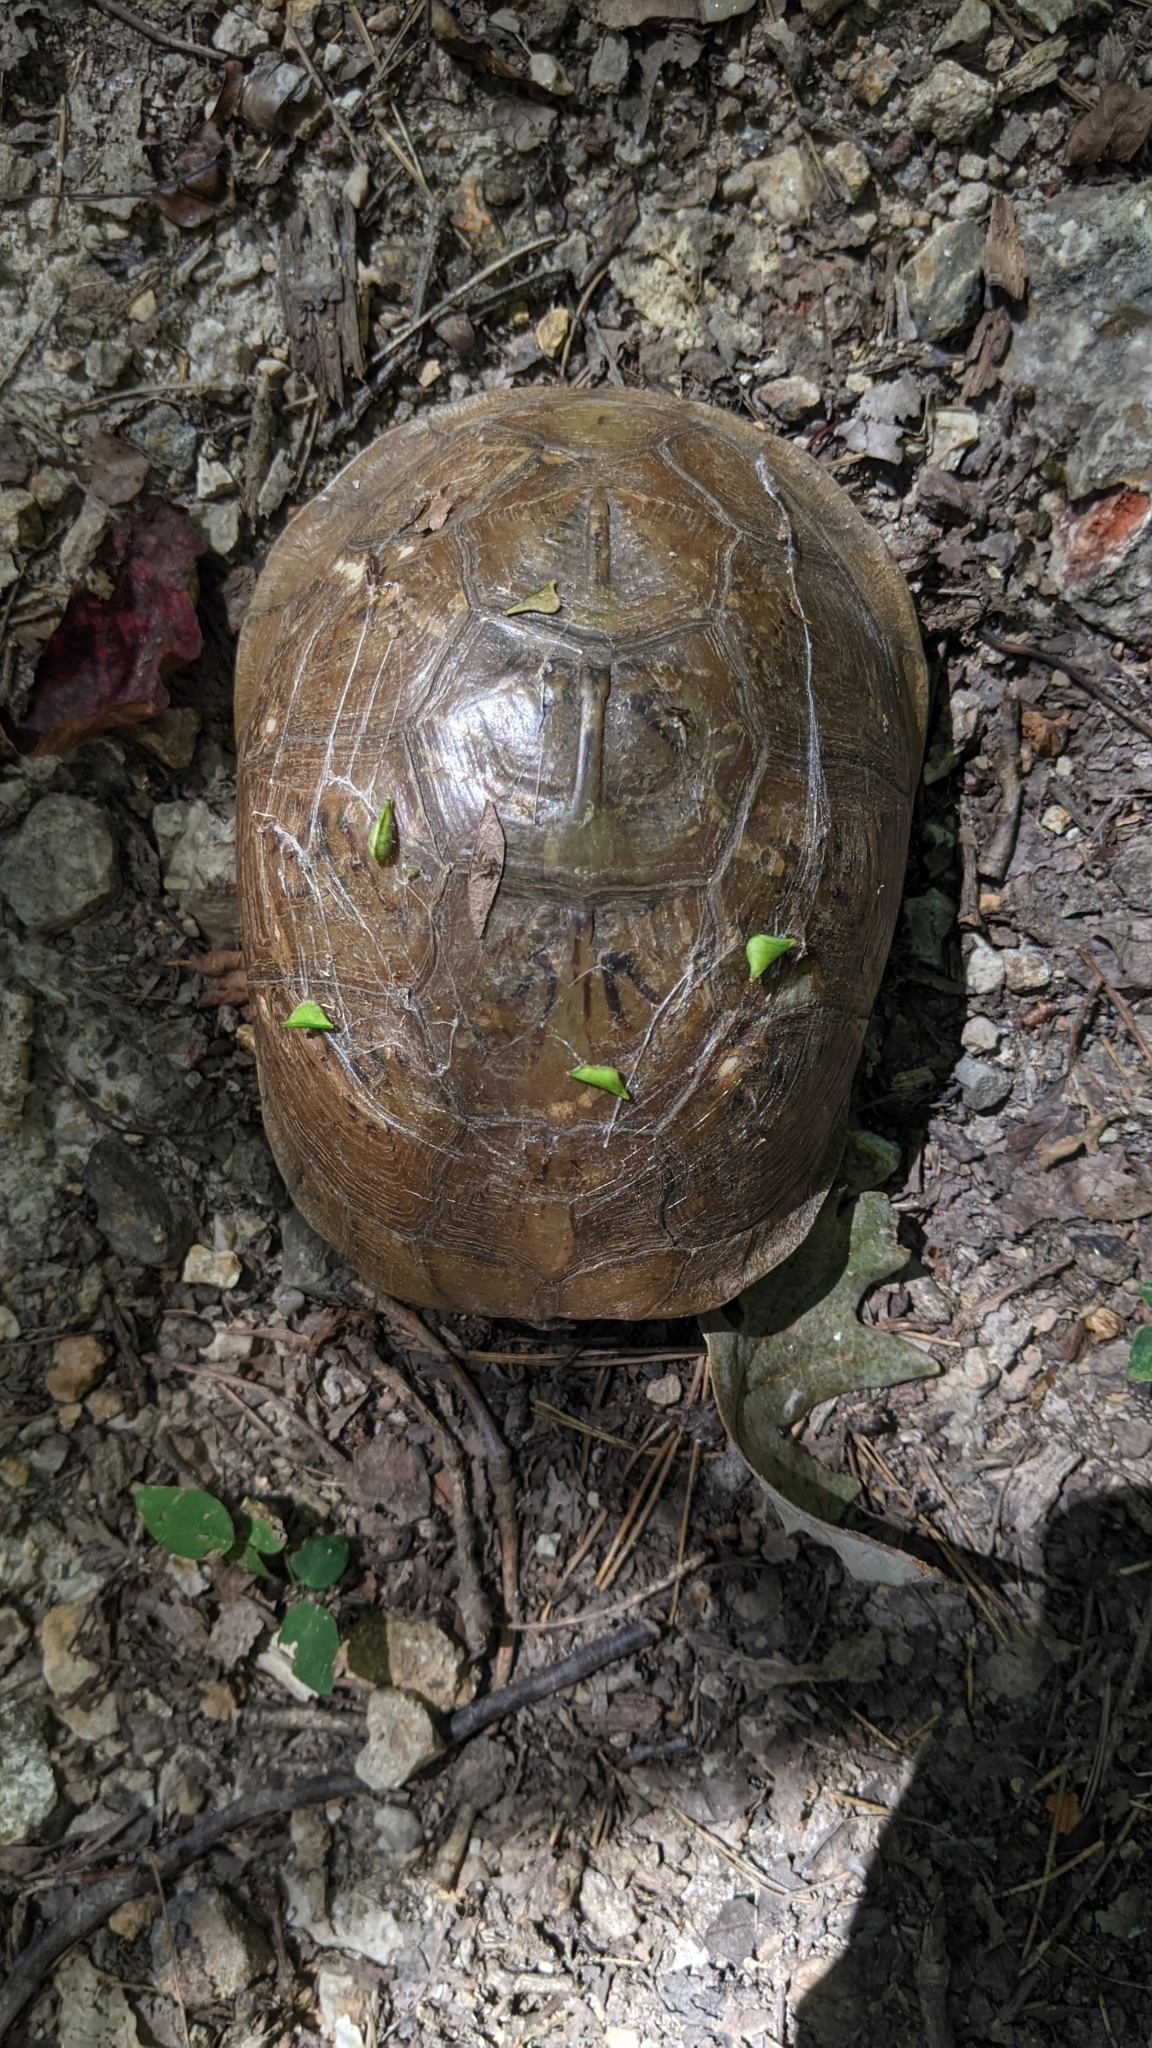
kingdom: Animalia
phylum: Chordata
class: Testudines
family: Emydidae
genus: Terrapene
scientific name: Terrapene carolina
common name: Common box turtle
